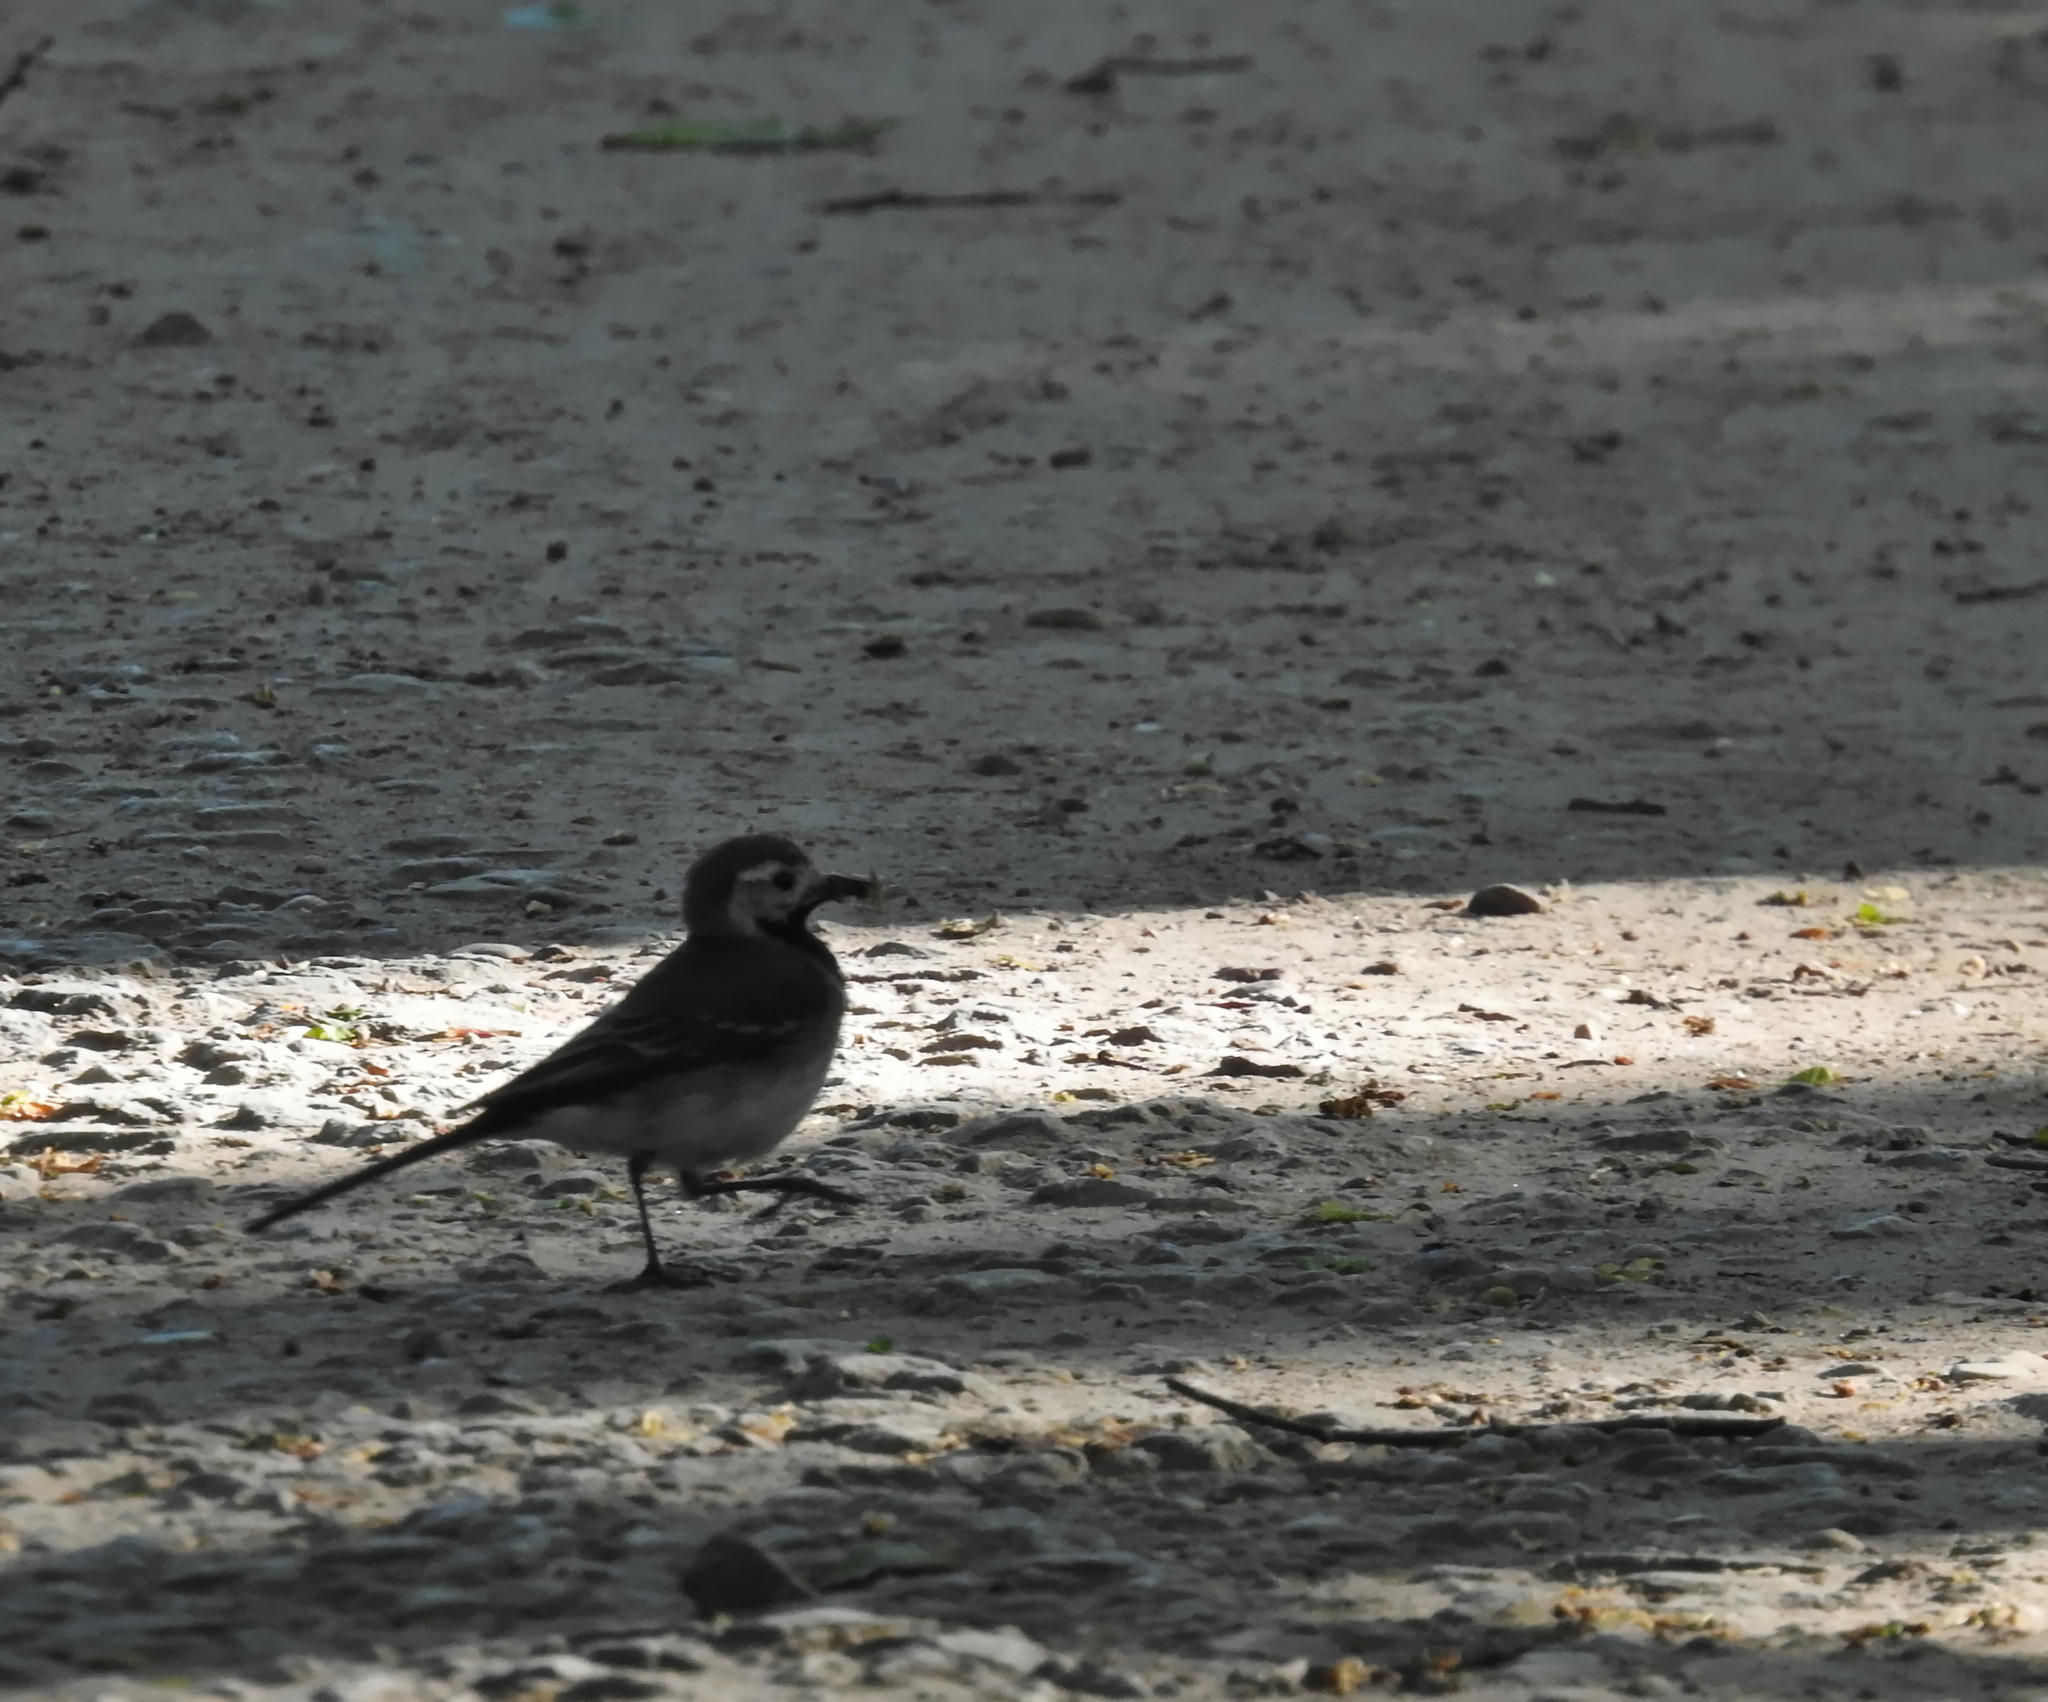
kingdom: Animalia
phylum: Chordata
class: Aves
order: Passeriformes
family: Motacillidae
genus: Motacilla
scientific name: Motacilla alba
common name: White wagtail
